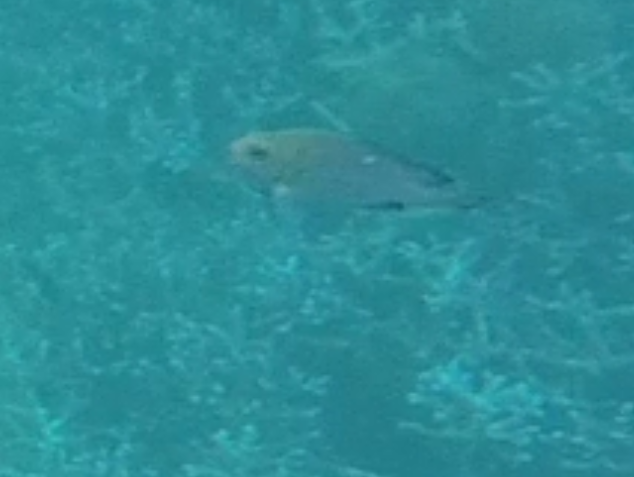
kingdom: Animalia
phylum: Chordata
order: Perciformes
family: Pomacentridae
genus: Dascyllus
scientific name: Dascyllus trimaculatus
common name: Threespot dascyllus
